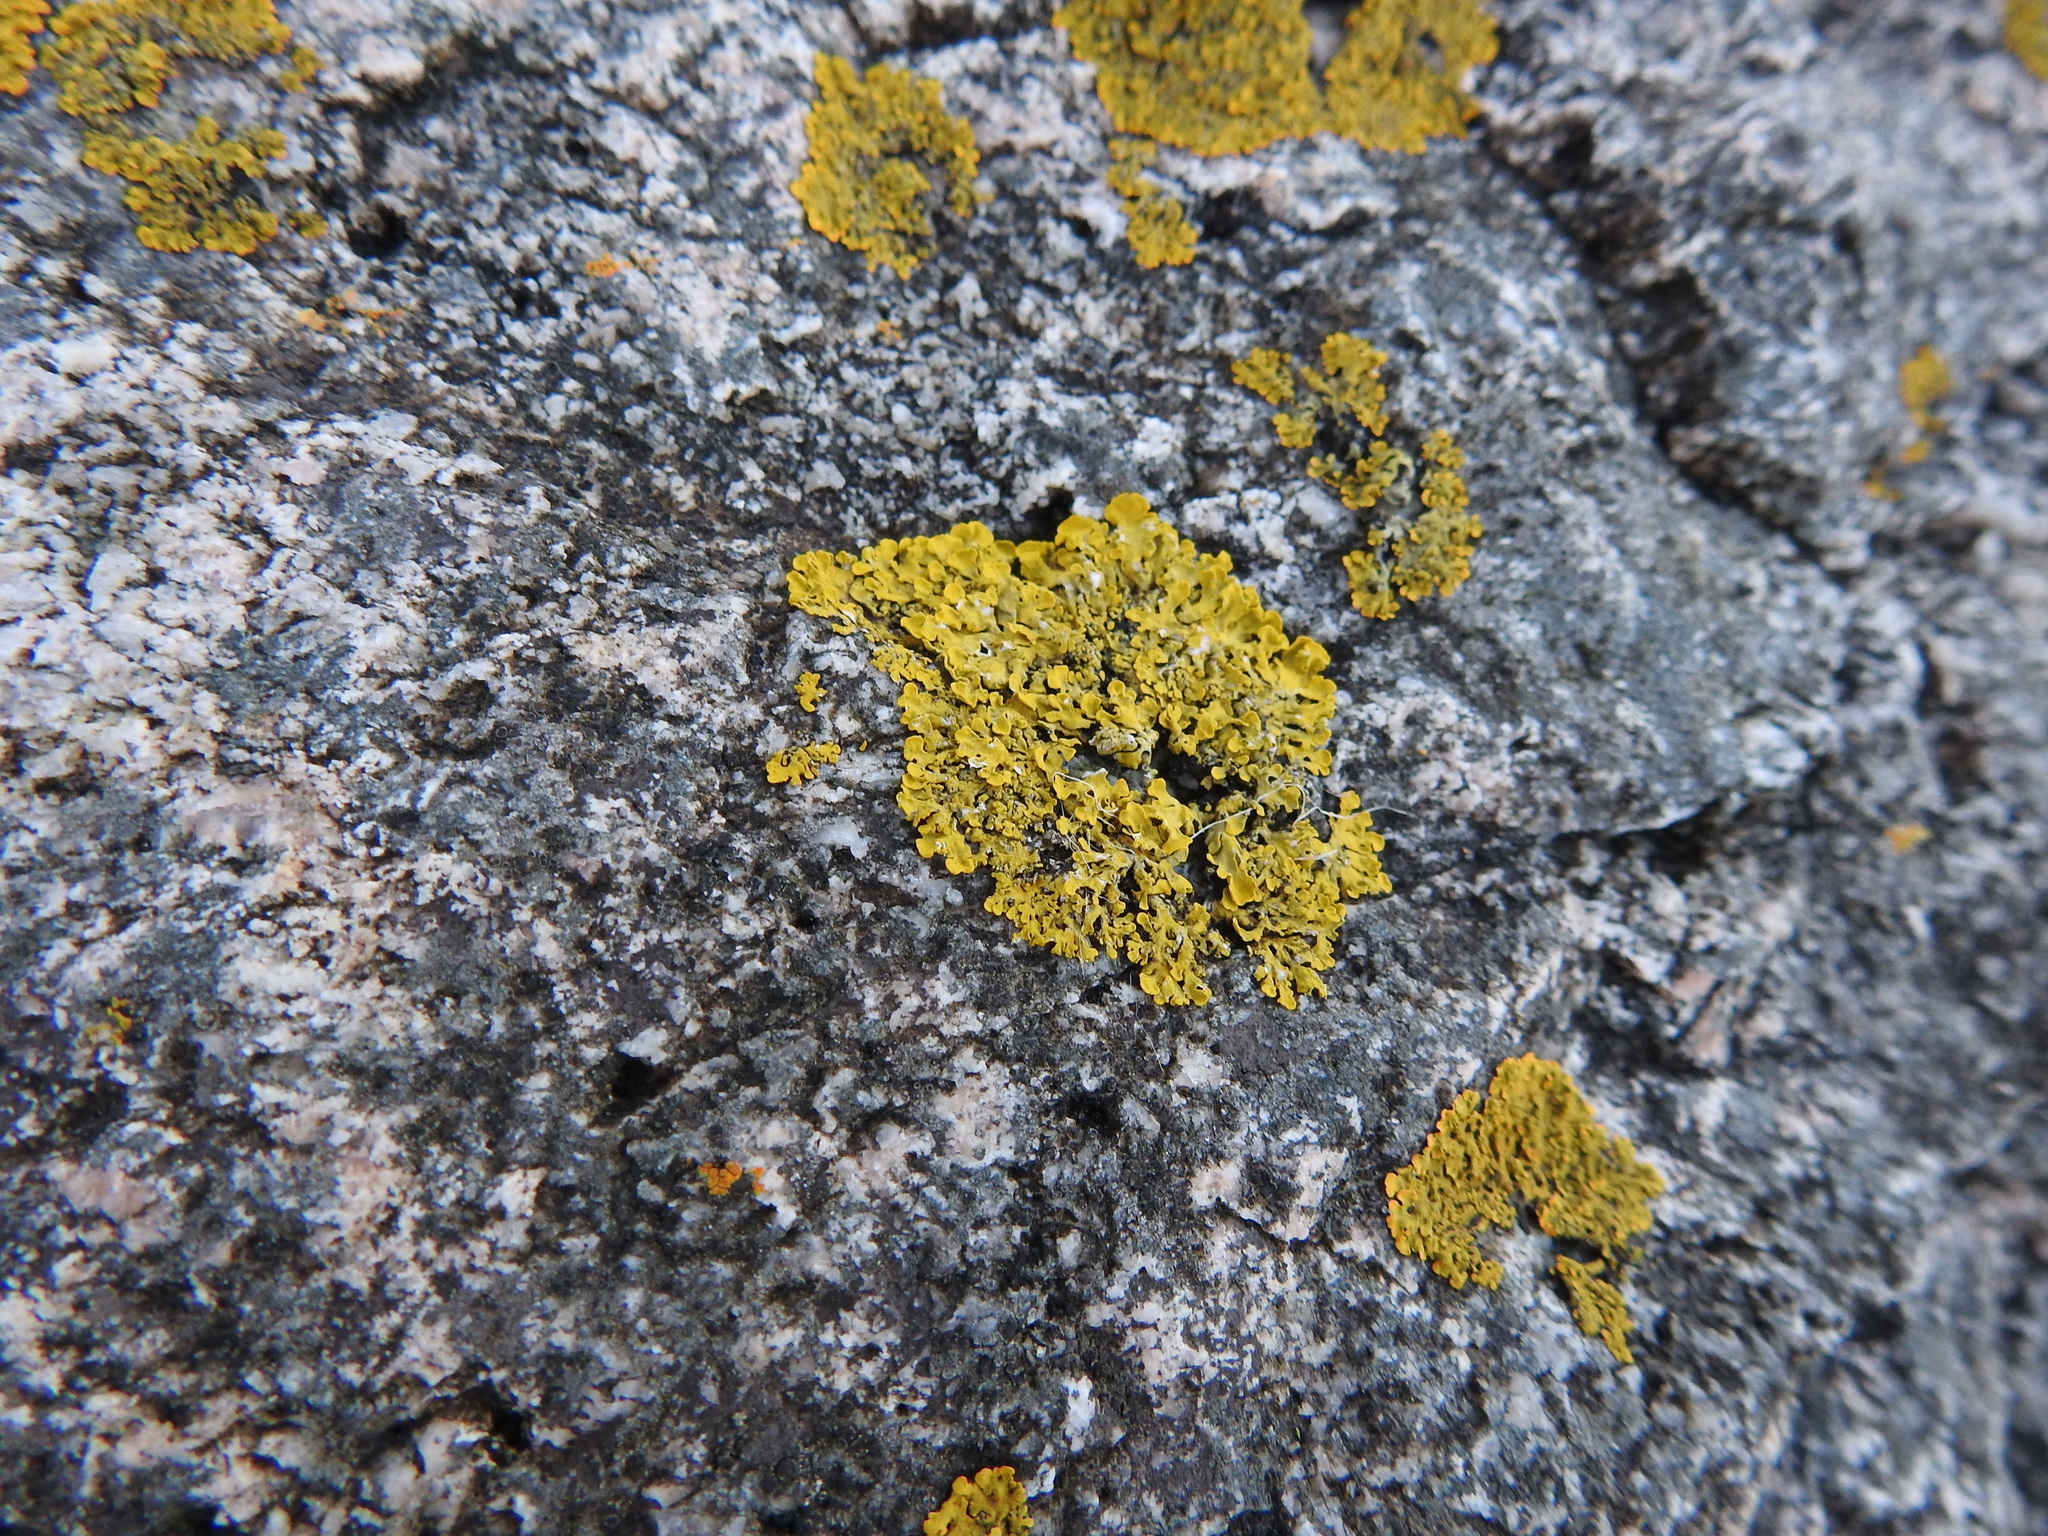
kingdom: Fungi
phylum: Ascomycota
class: Lecanoromycetes
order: Teloschistales
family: Teloschistaceae
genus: Xanthoria
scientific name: Xanthoria parietina
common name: Common orange lichen
